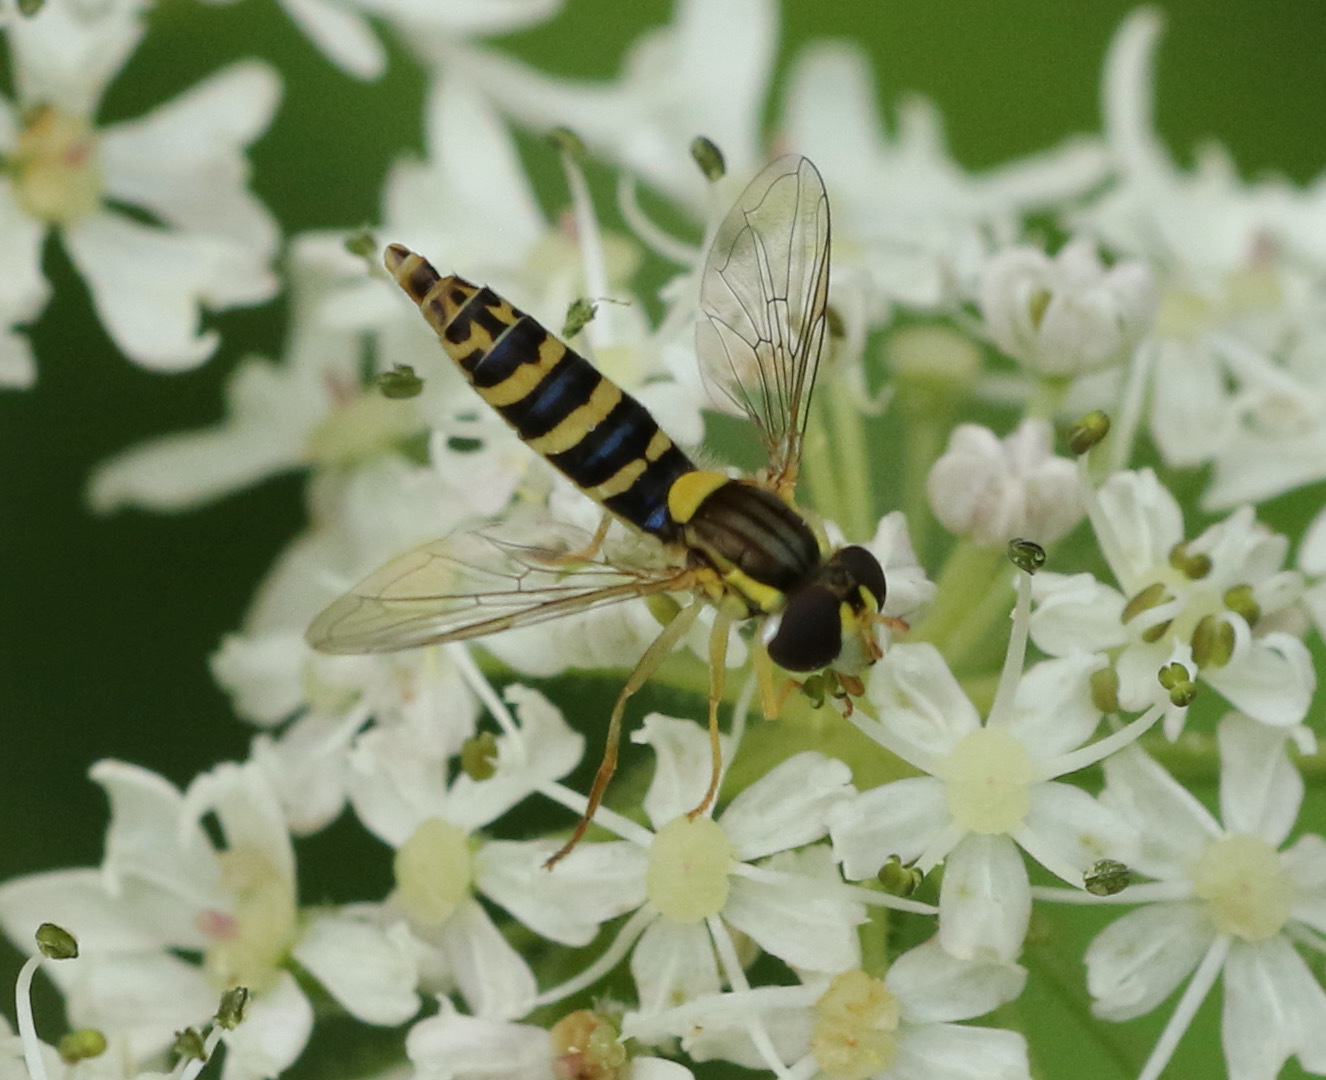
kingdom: Animalia
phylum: Arthropoda
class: Insecta
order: Diptera
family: Syrphidae
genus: Sphaerophoria
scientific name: Sphaerophoria
